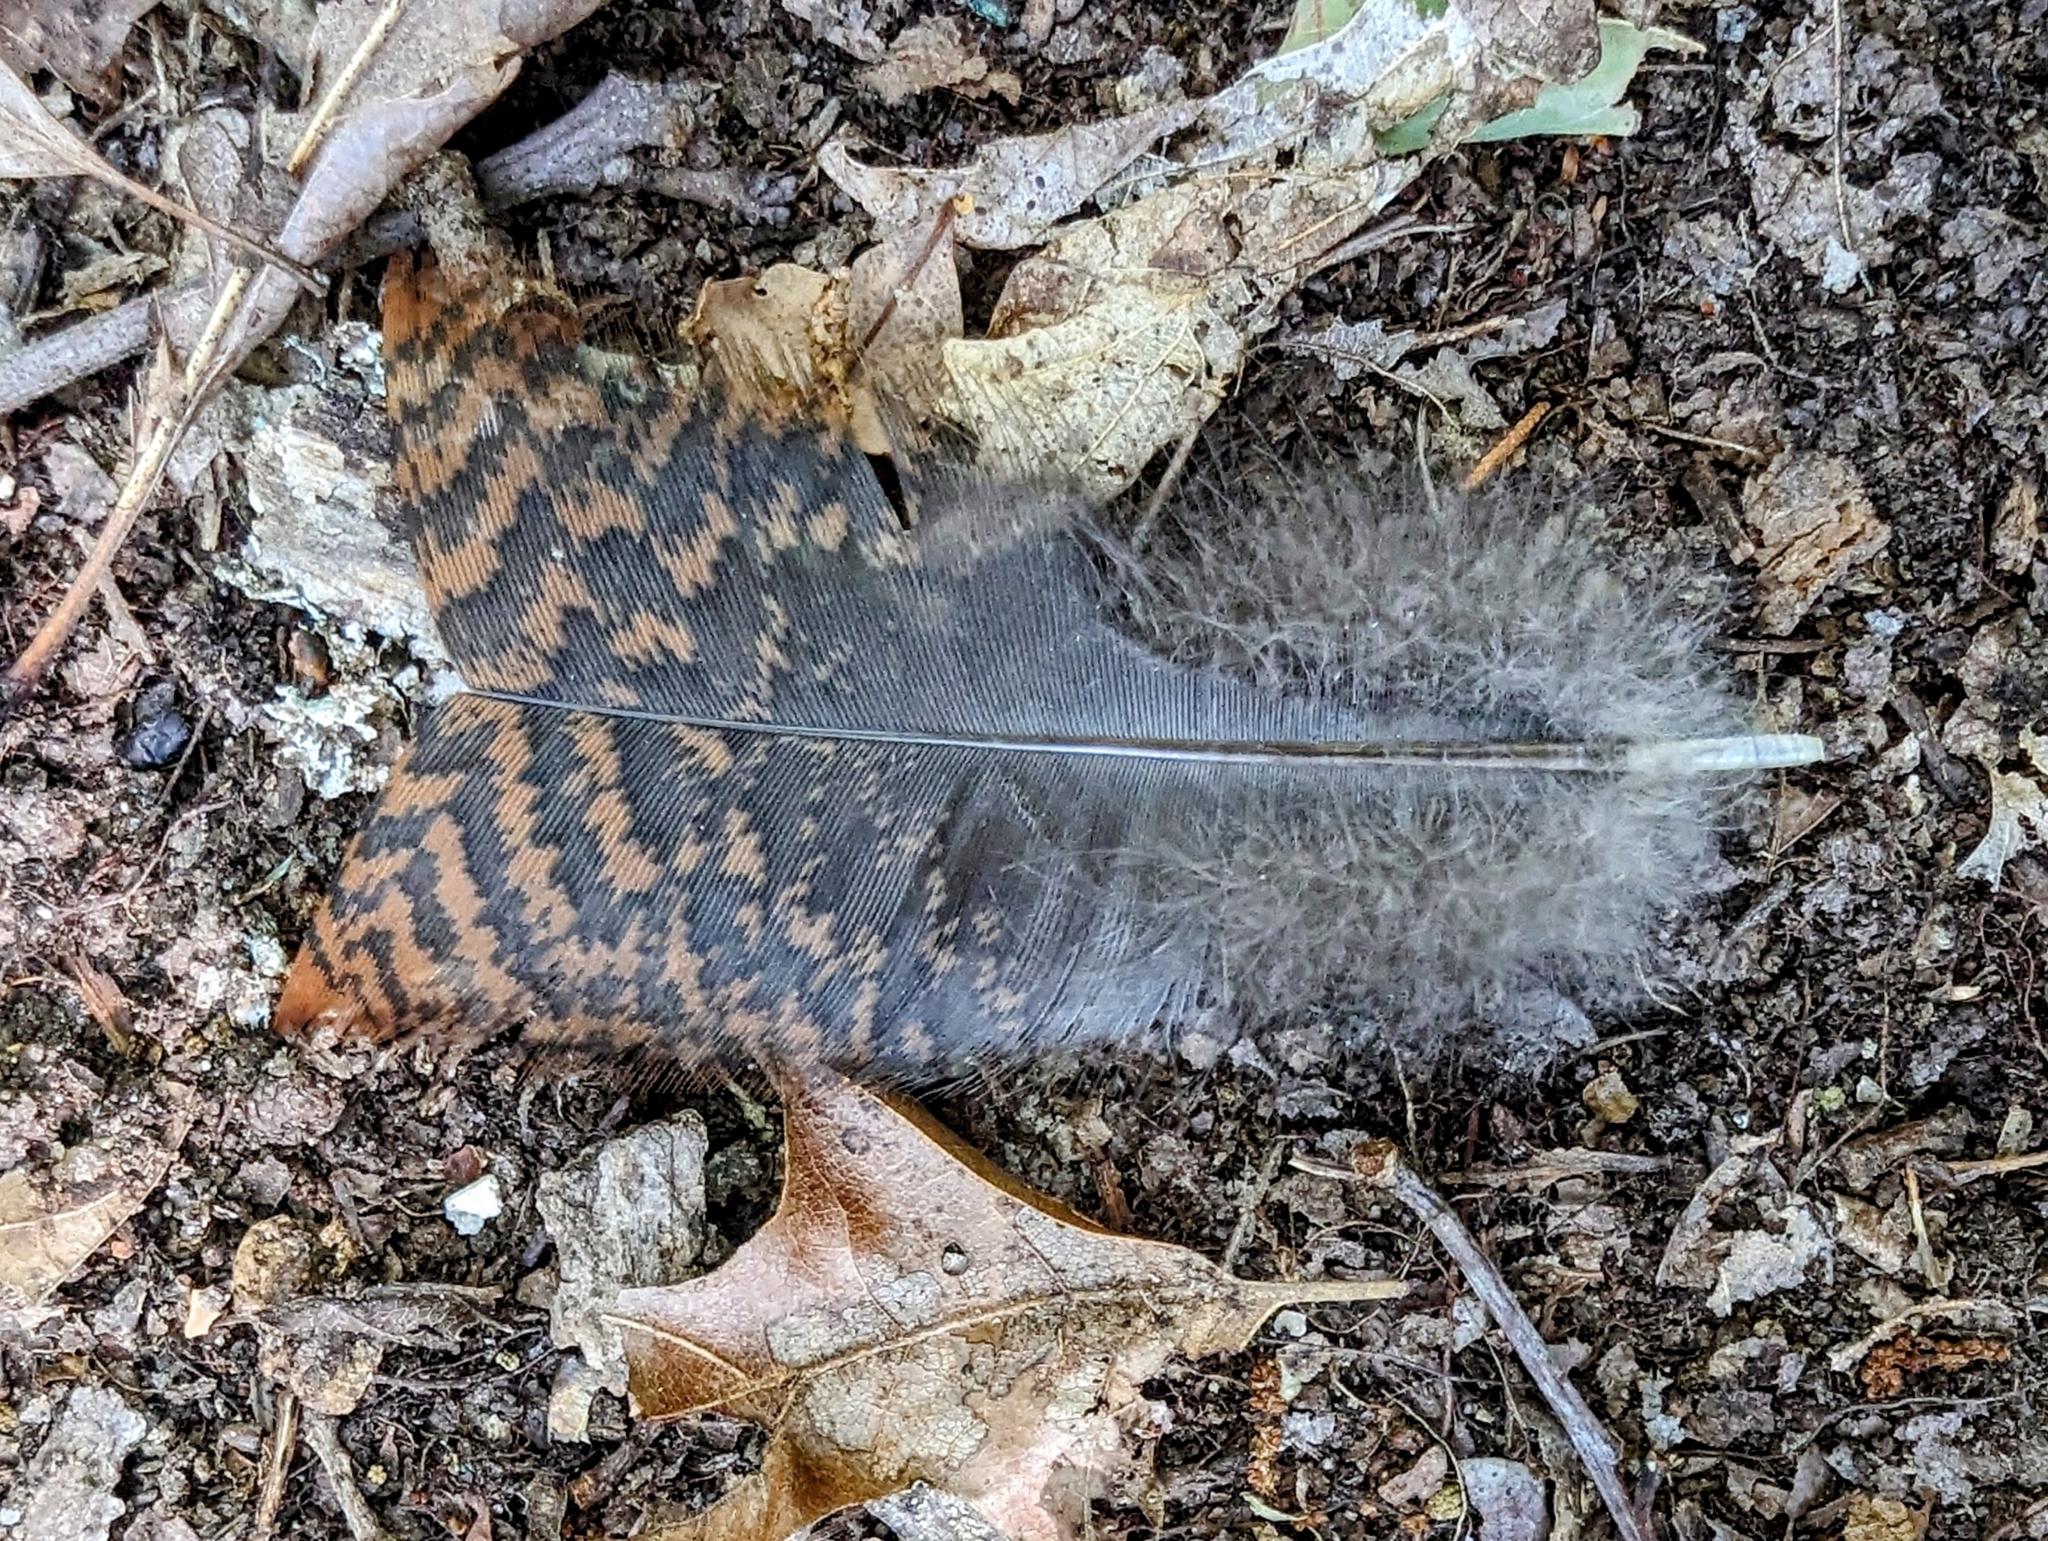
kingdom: Animalia
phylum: Chordata
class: Aves
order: Galliformes
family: Phasianidae
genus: Meleagris
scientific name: Meleagris gallopavo
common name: Wild turkey
